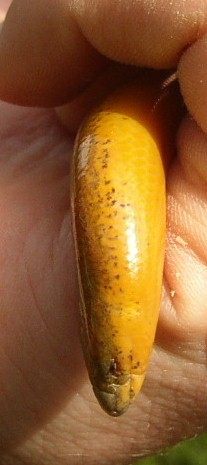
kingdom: Animalia
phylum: Chordata
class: Squamata
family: Scincidae
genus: Acontias
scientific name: Acontias meleagris
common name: Cape legless skink
